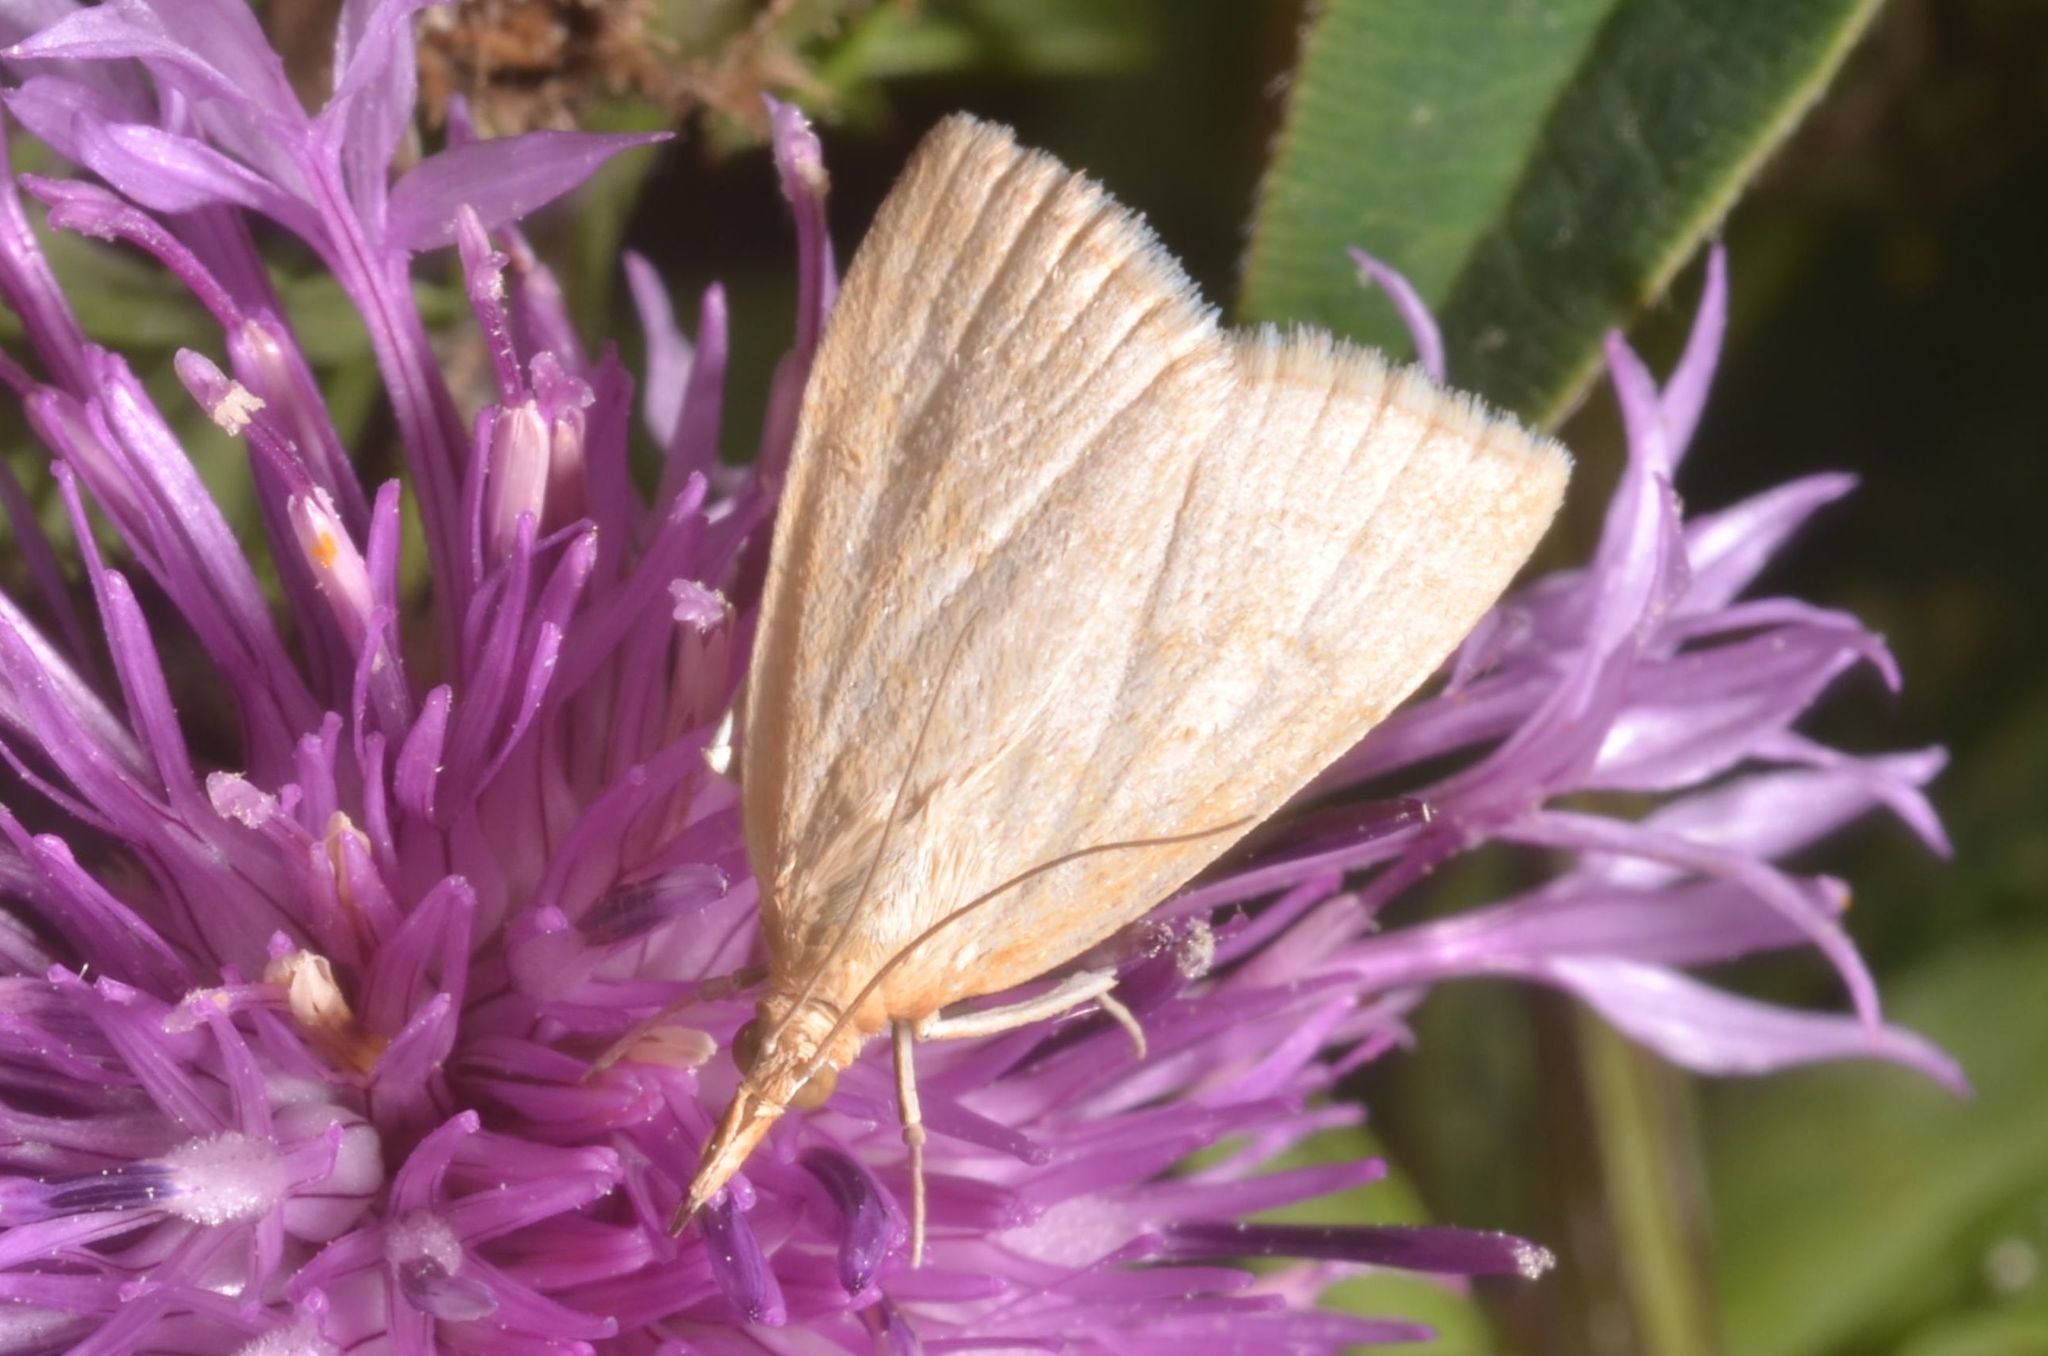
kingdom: Animalia
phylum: Arthropoda
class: Insecta
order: Lepidoptera
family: Crambidae
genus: Udea
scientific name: Udea lutealis
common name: Pale straw pearl
